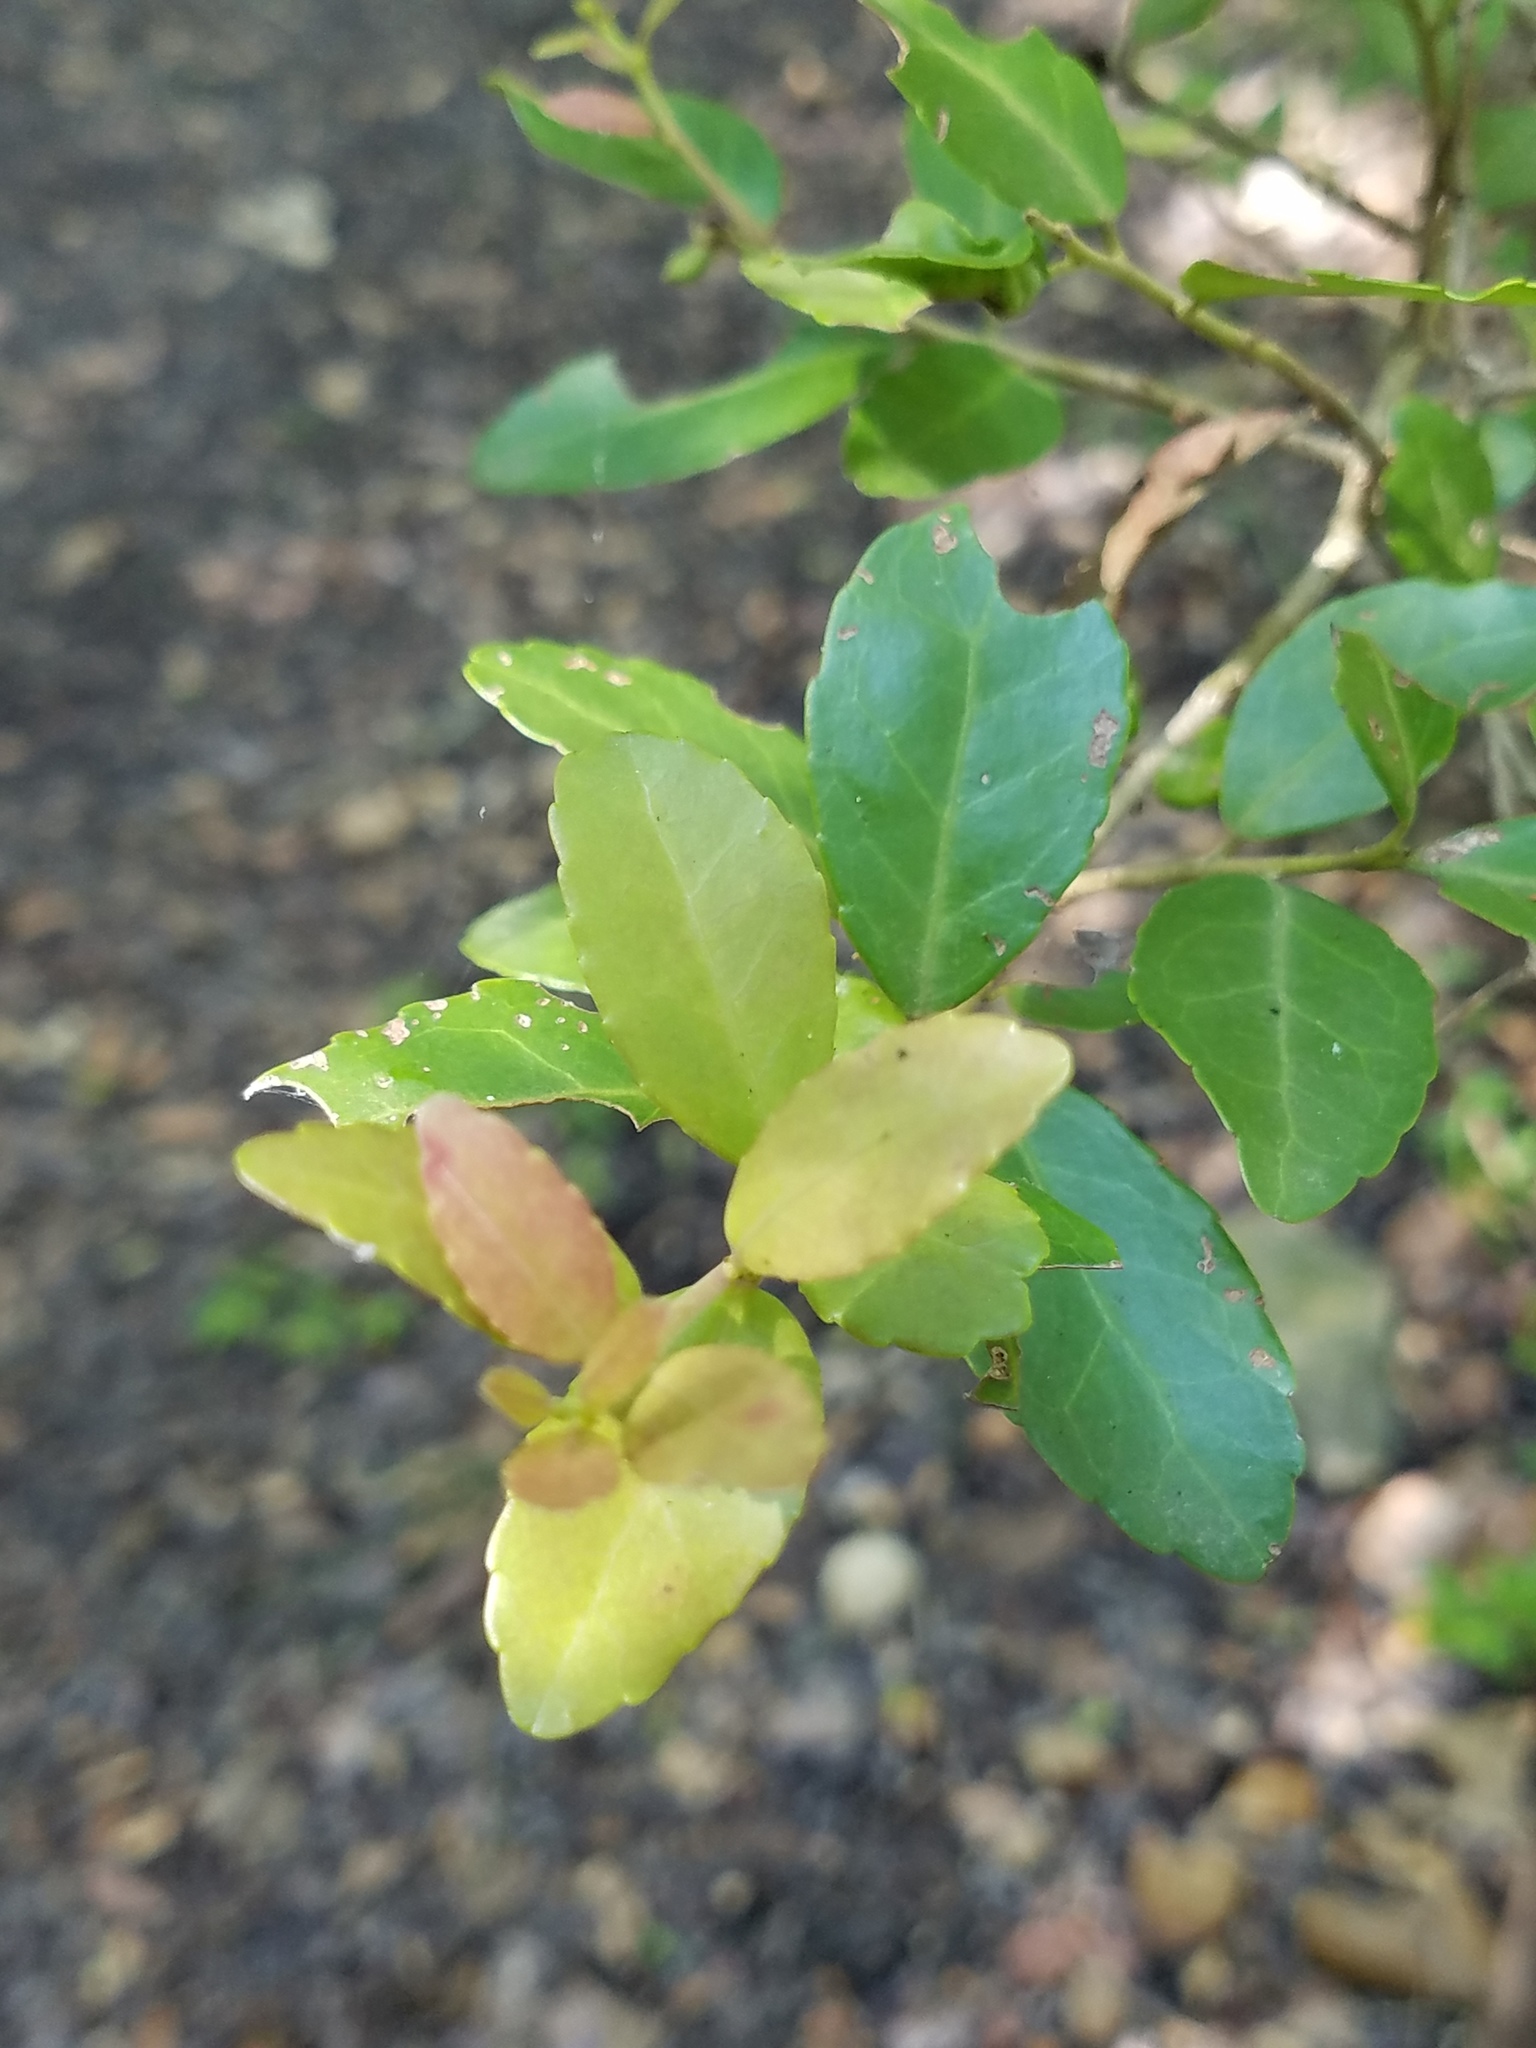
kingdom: Plantae
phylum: Tracheophyta
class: Magnoliopsida
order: Aquifoliales
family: Aquifoliaceae
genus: Ilex
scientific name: Ilex vomitoria
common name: Yaupon holly
